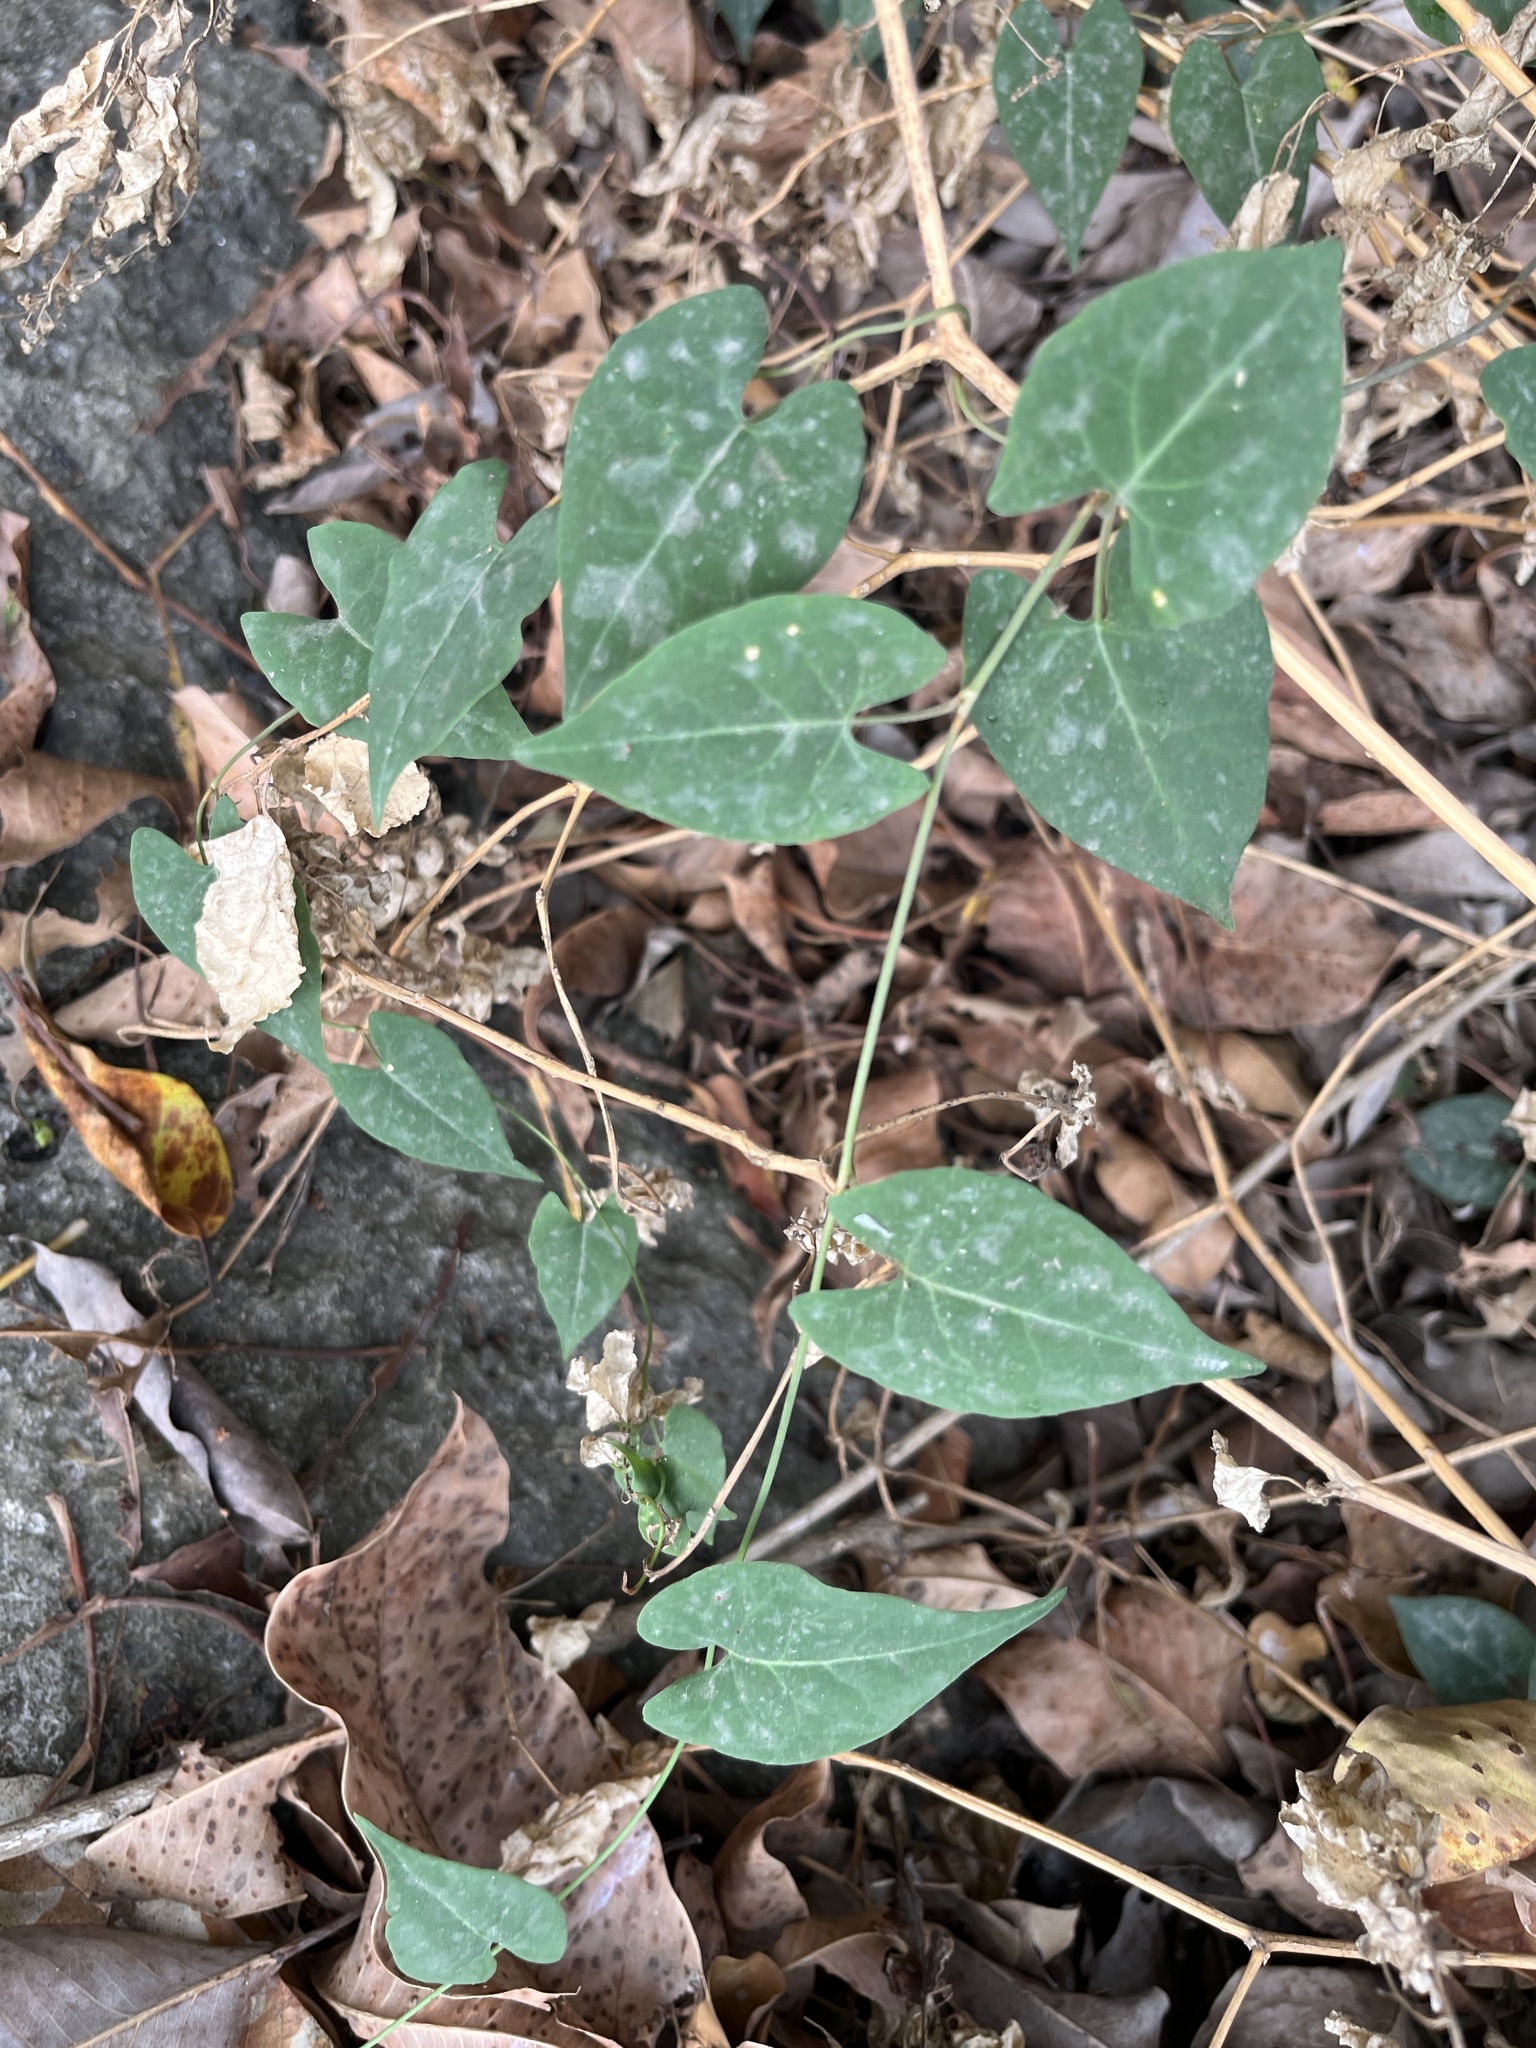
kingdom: Plantae
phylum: Tracheophyta
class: Magnoliopsida
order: Caryophyllales
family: Polygonaceae
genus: Reynoutria
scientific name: Reynoutria multiflora
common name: Chinese fleeceflower
